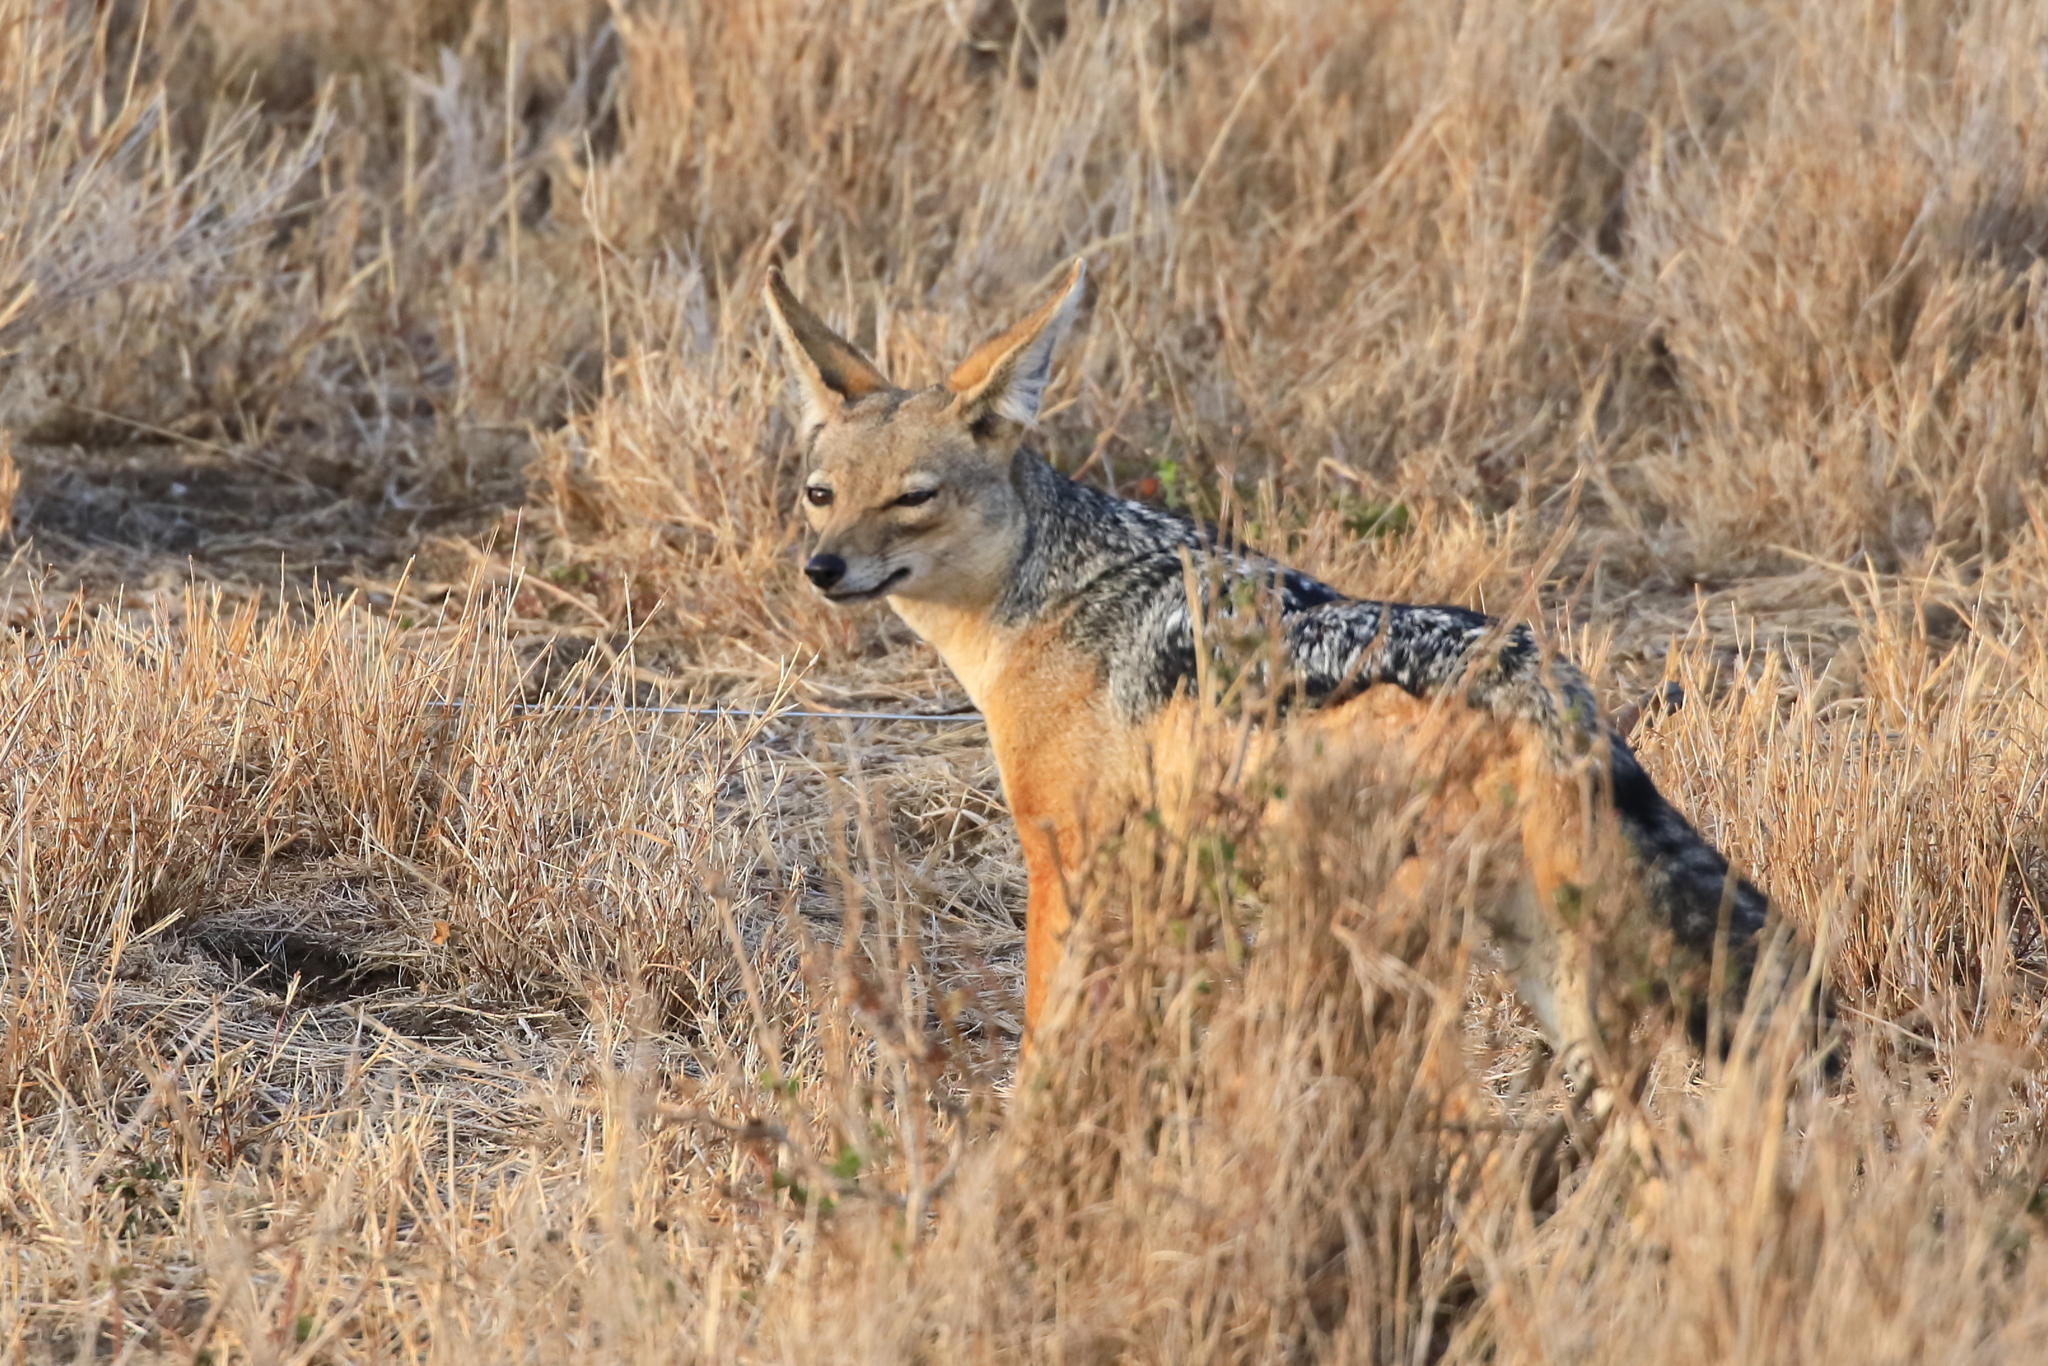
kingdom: Animalia
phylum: Chordata
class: Mammalia
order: Carnivora
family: Canidae
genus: Lupulella
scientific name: Lupulella
